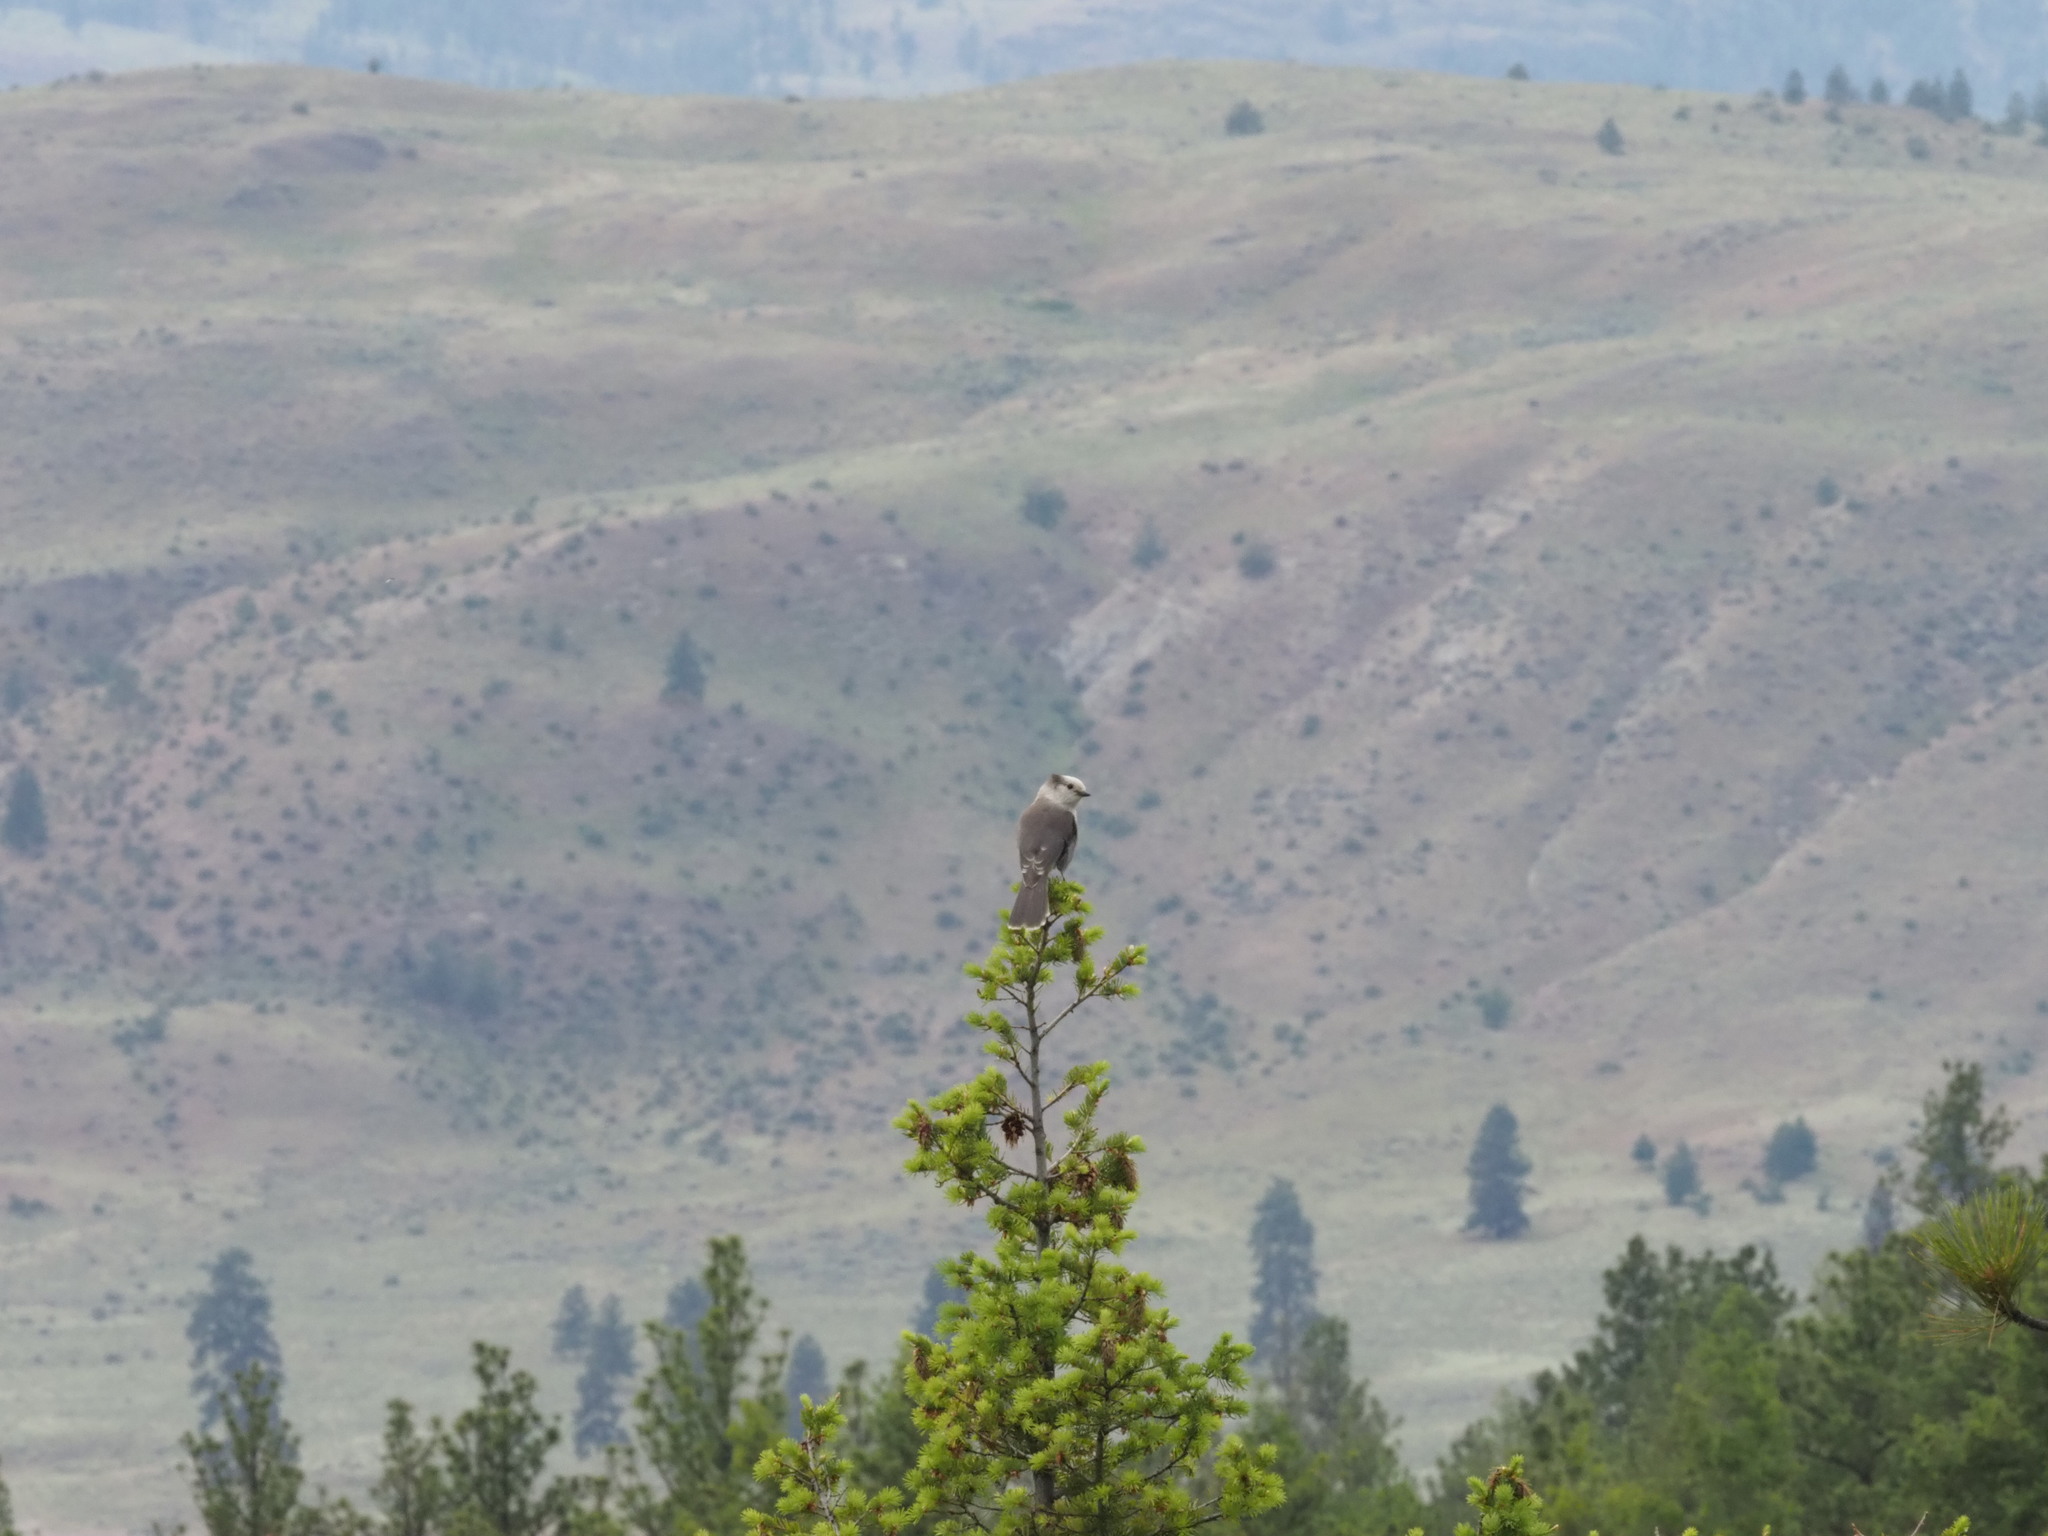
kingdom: Animalia
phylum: Chordata
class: Aves
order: Passeriformes
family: Corvidae
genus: Perisoreus
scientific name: Perisoreus canadensis
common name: Gray jay
